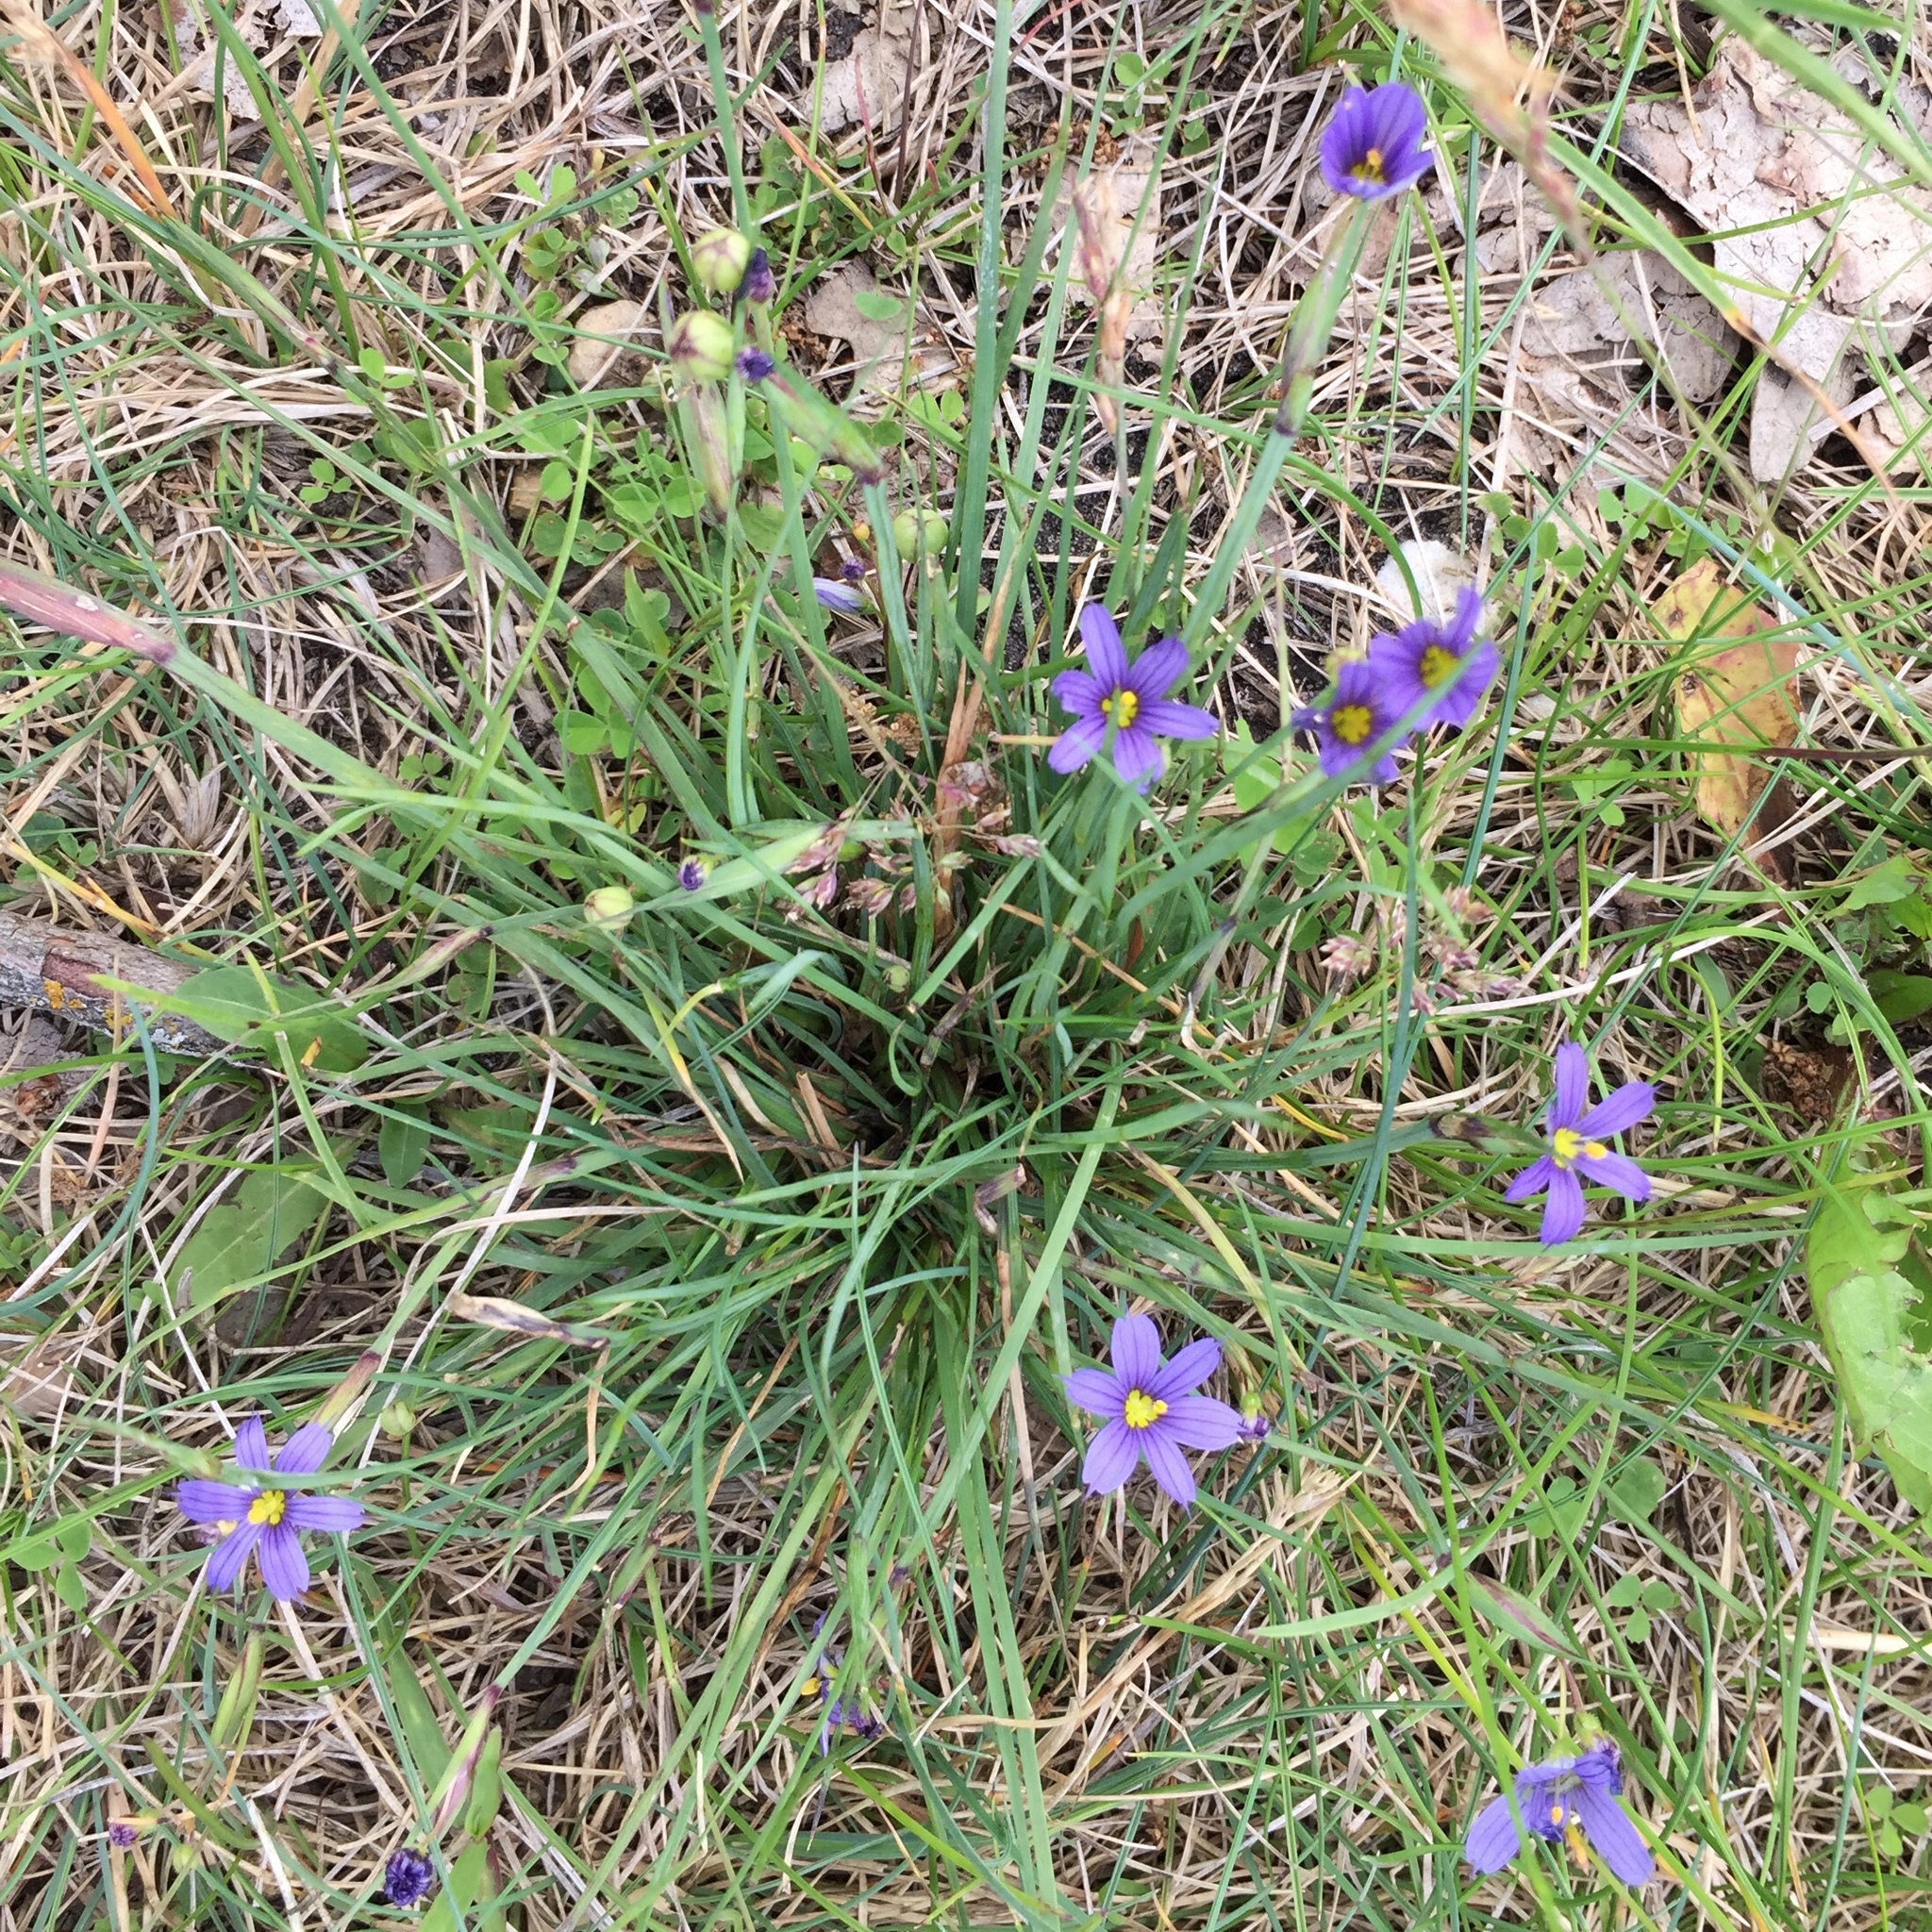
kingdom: Plantae
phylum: Tracheophyta
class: Liliopsida
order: Asparagales
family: Iridaceae
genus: Sisyrinchium
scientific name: Sisyrinchium montanum
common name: American blue-eyed-grass
